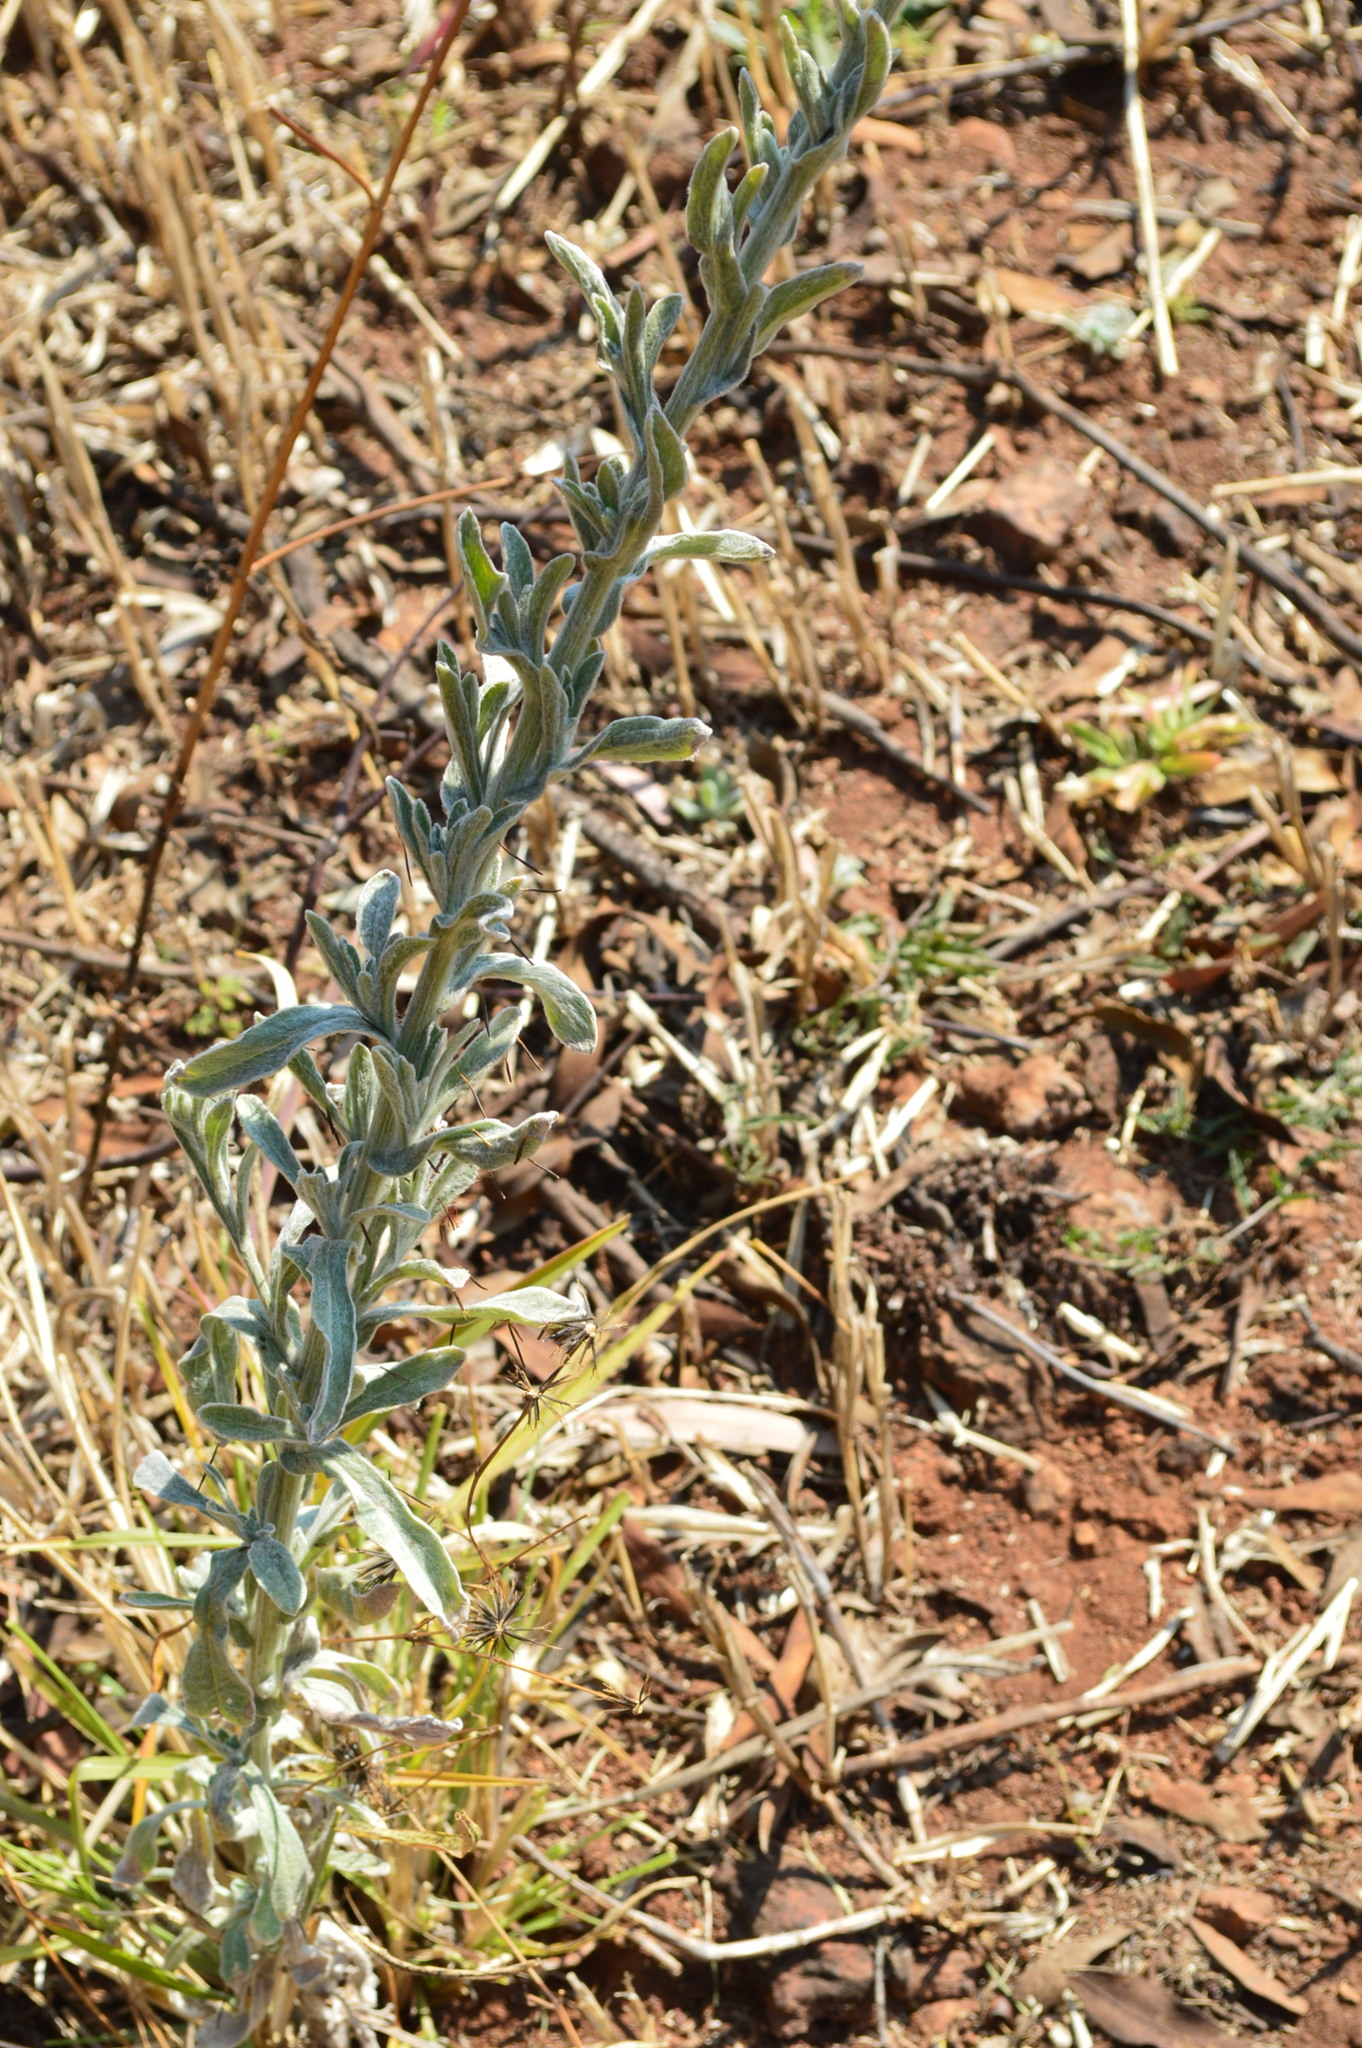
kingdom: Plantae
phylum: Tracheophyta
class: Magnoliopsida
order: Asterales
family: Asteraceae
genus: Nidorella
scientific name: Nidorella hottentotica
